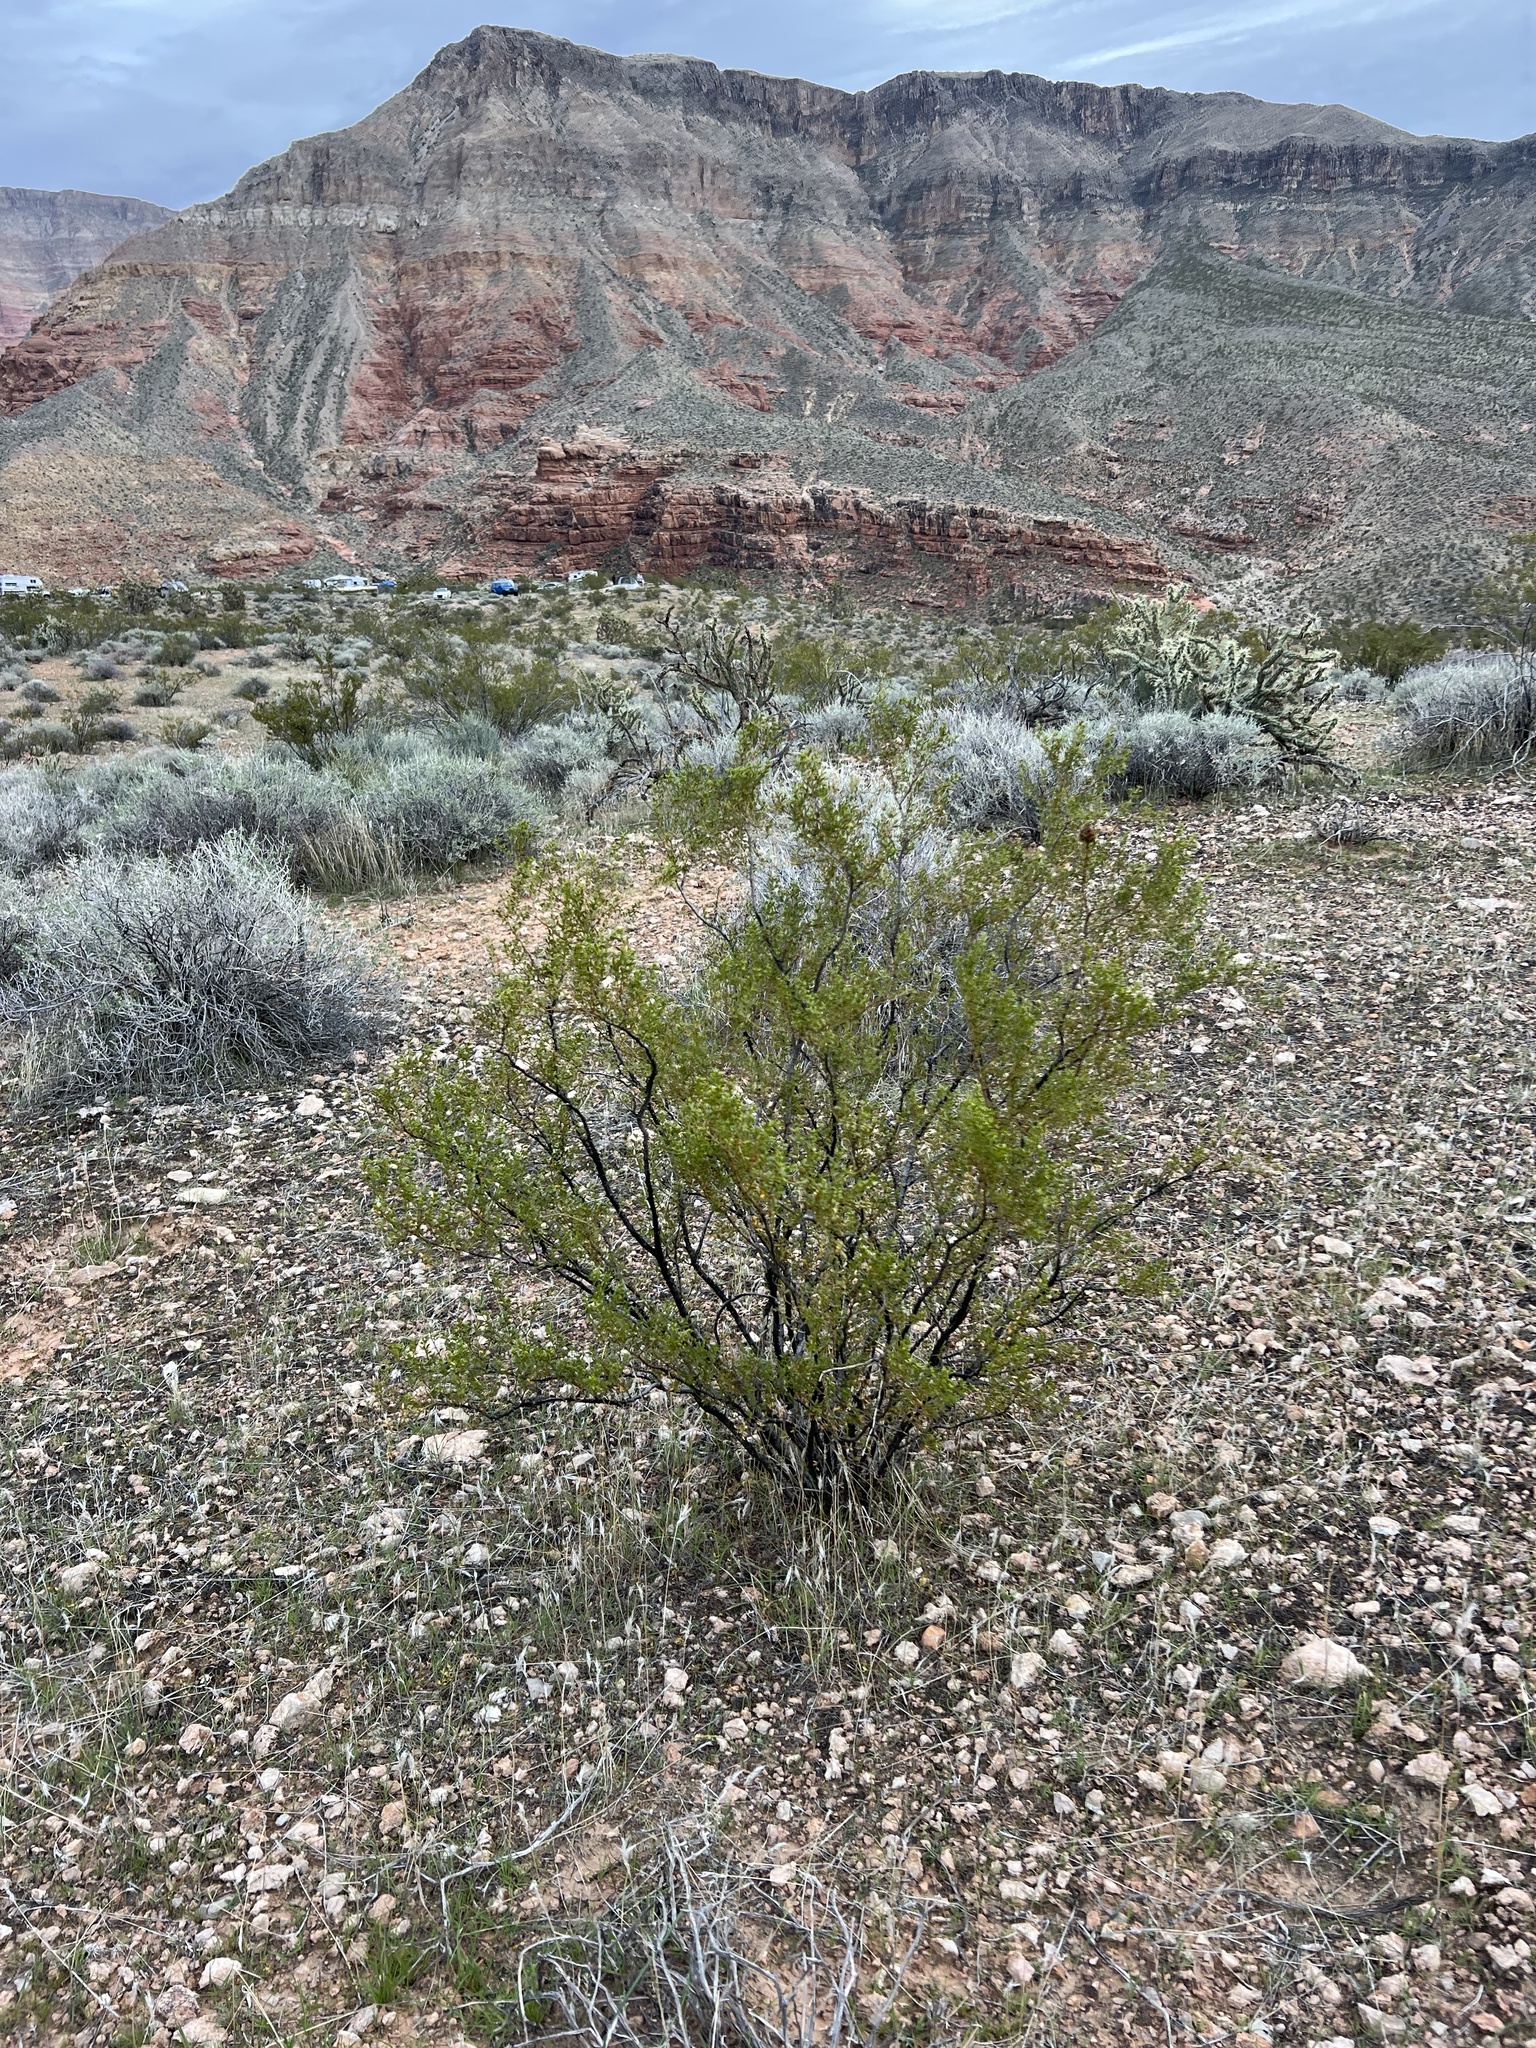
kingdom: Plantae
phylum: Tracheophyta
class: Magnoliopsida
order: Zygophyllales
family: Zygophyllaceae
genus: Larrea
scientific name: Larrea tridentata
